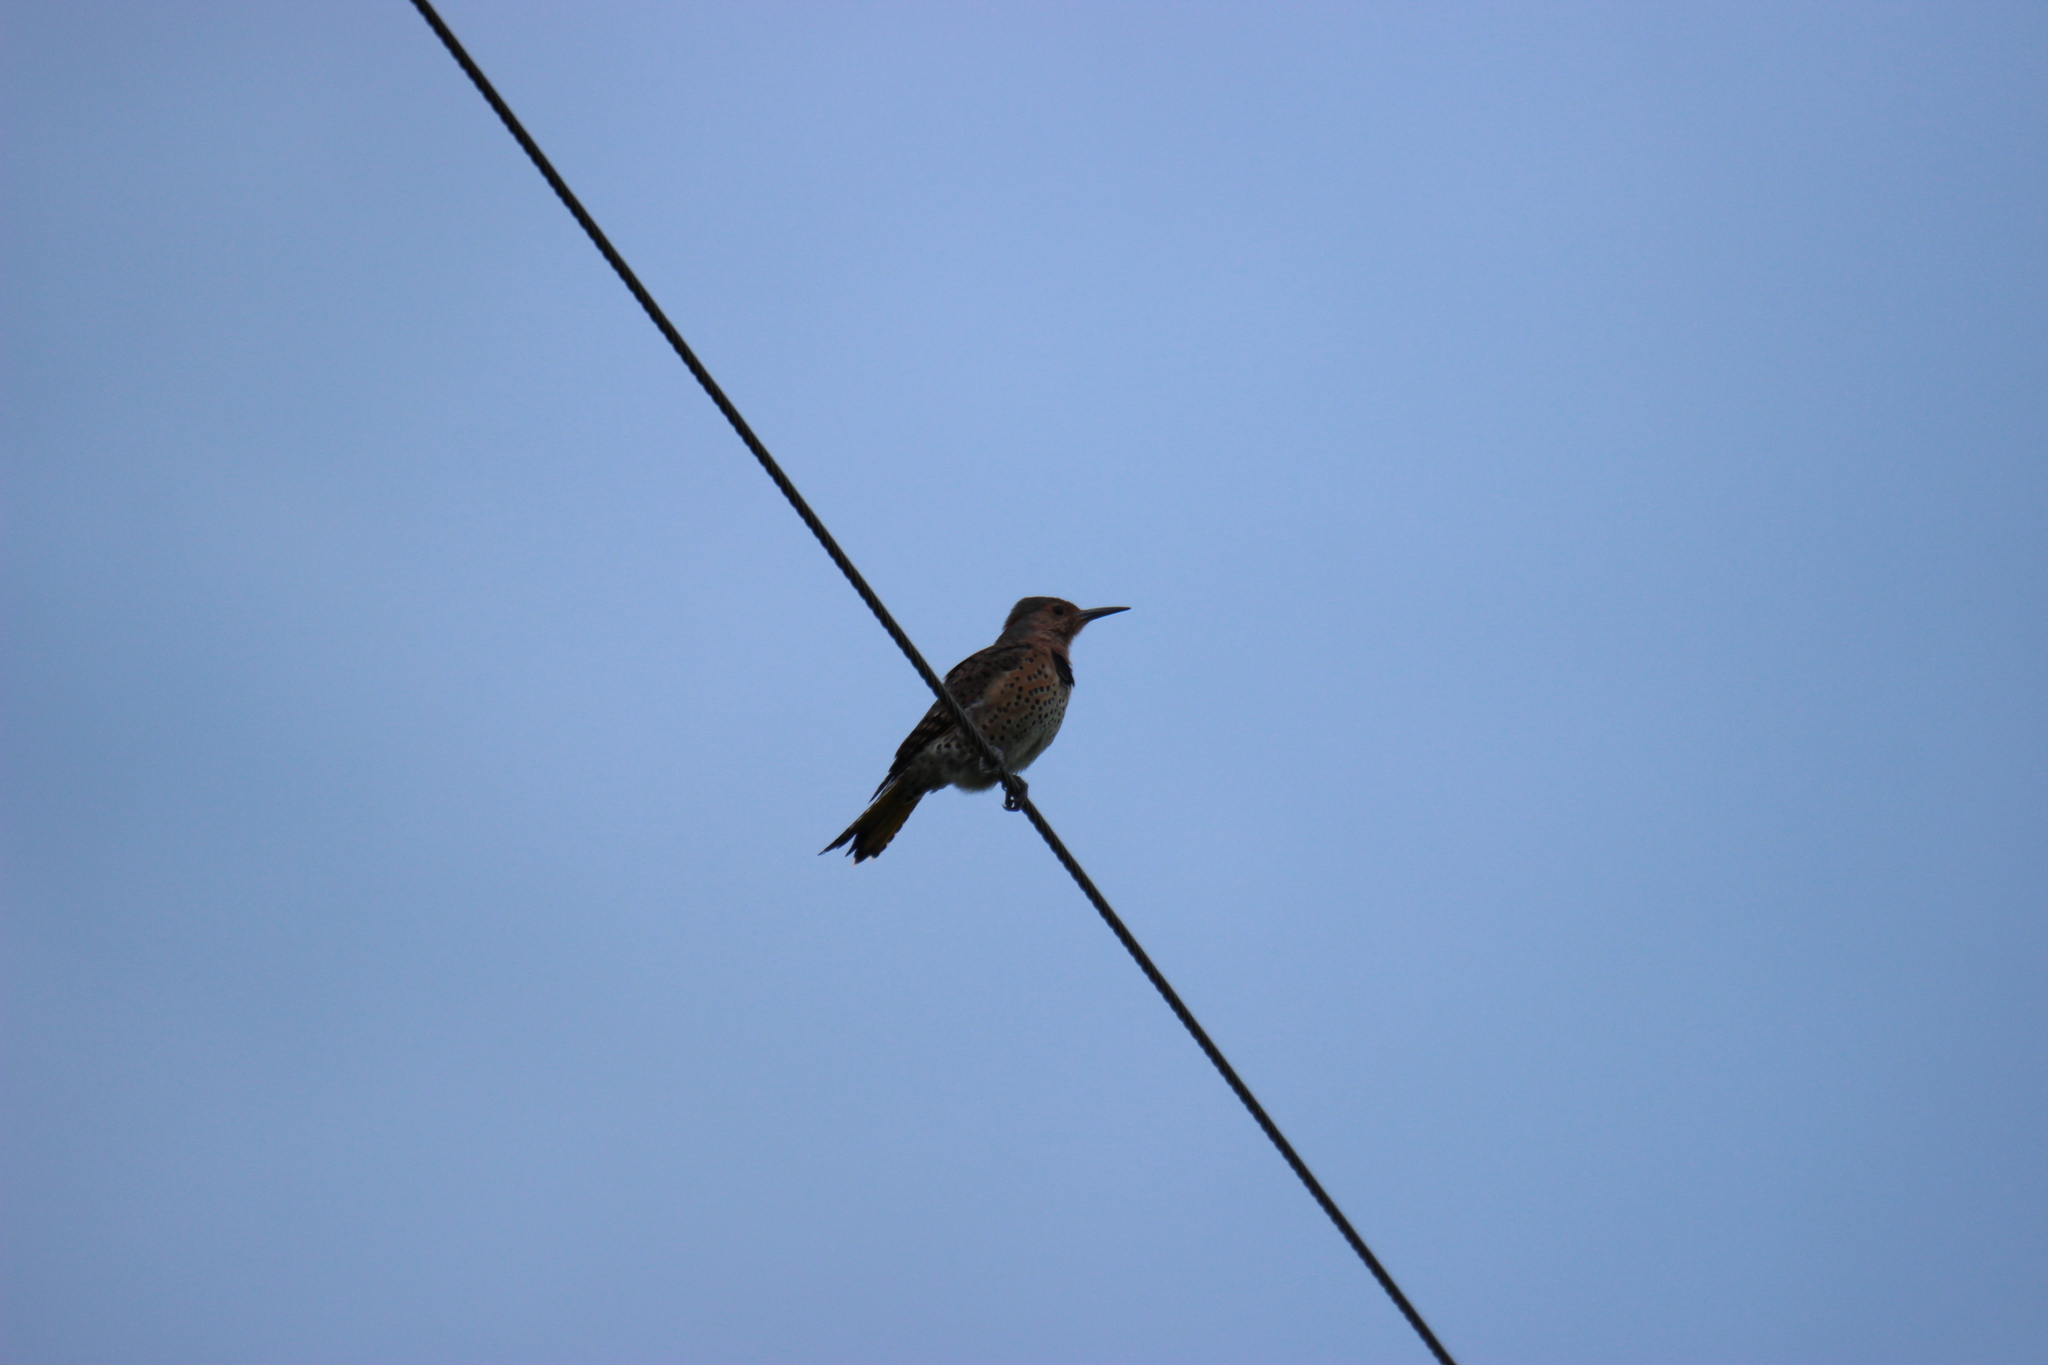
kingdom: Animalia
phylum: Chordata
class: Aves
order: Piciformes
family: Picidae
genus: Colaptes
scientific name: Colaptes auratus
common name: Northern flicker
